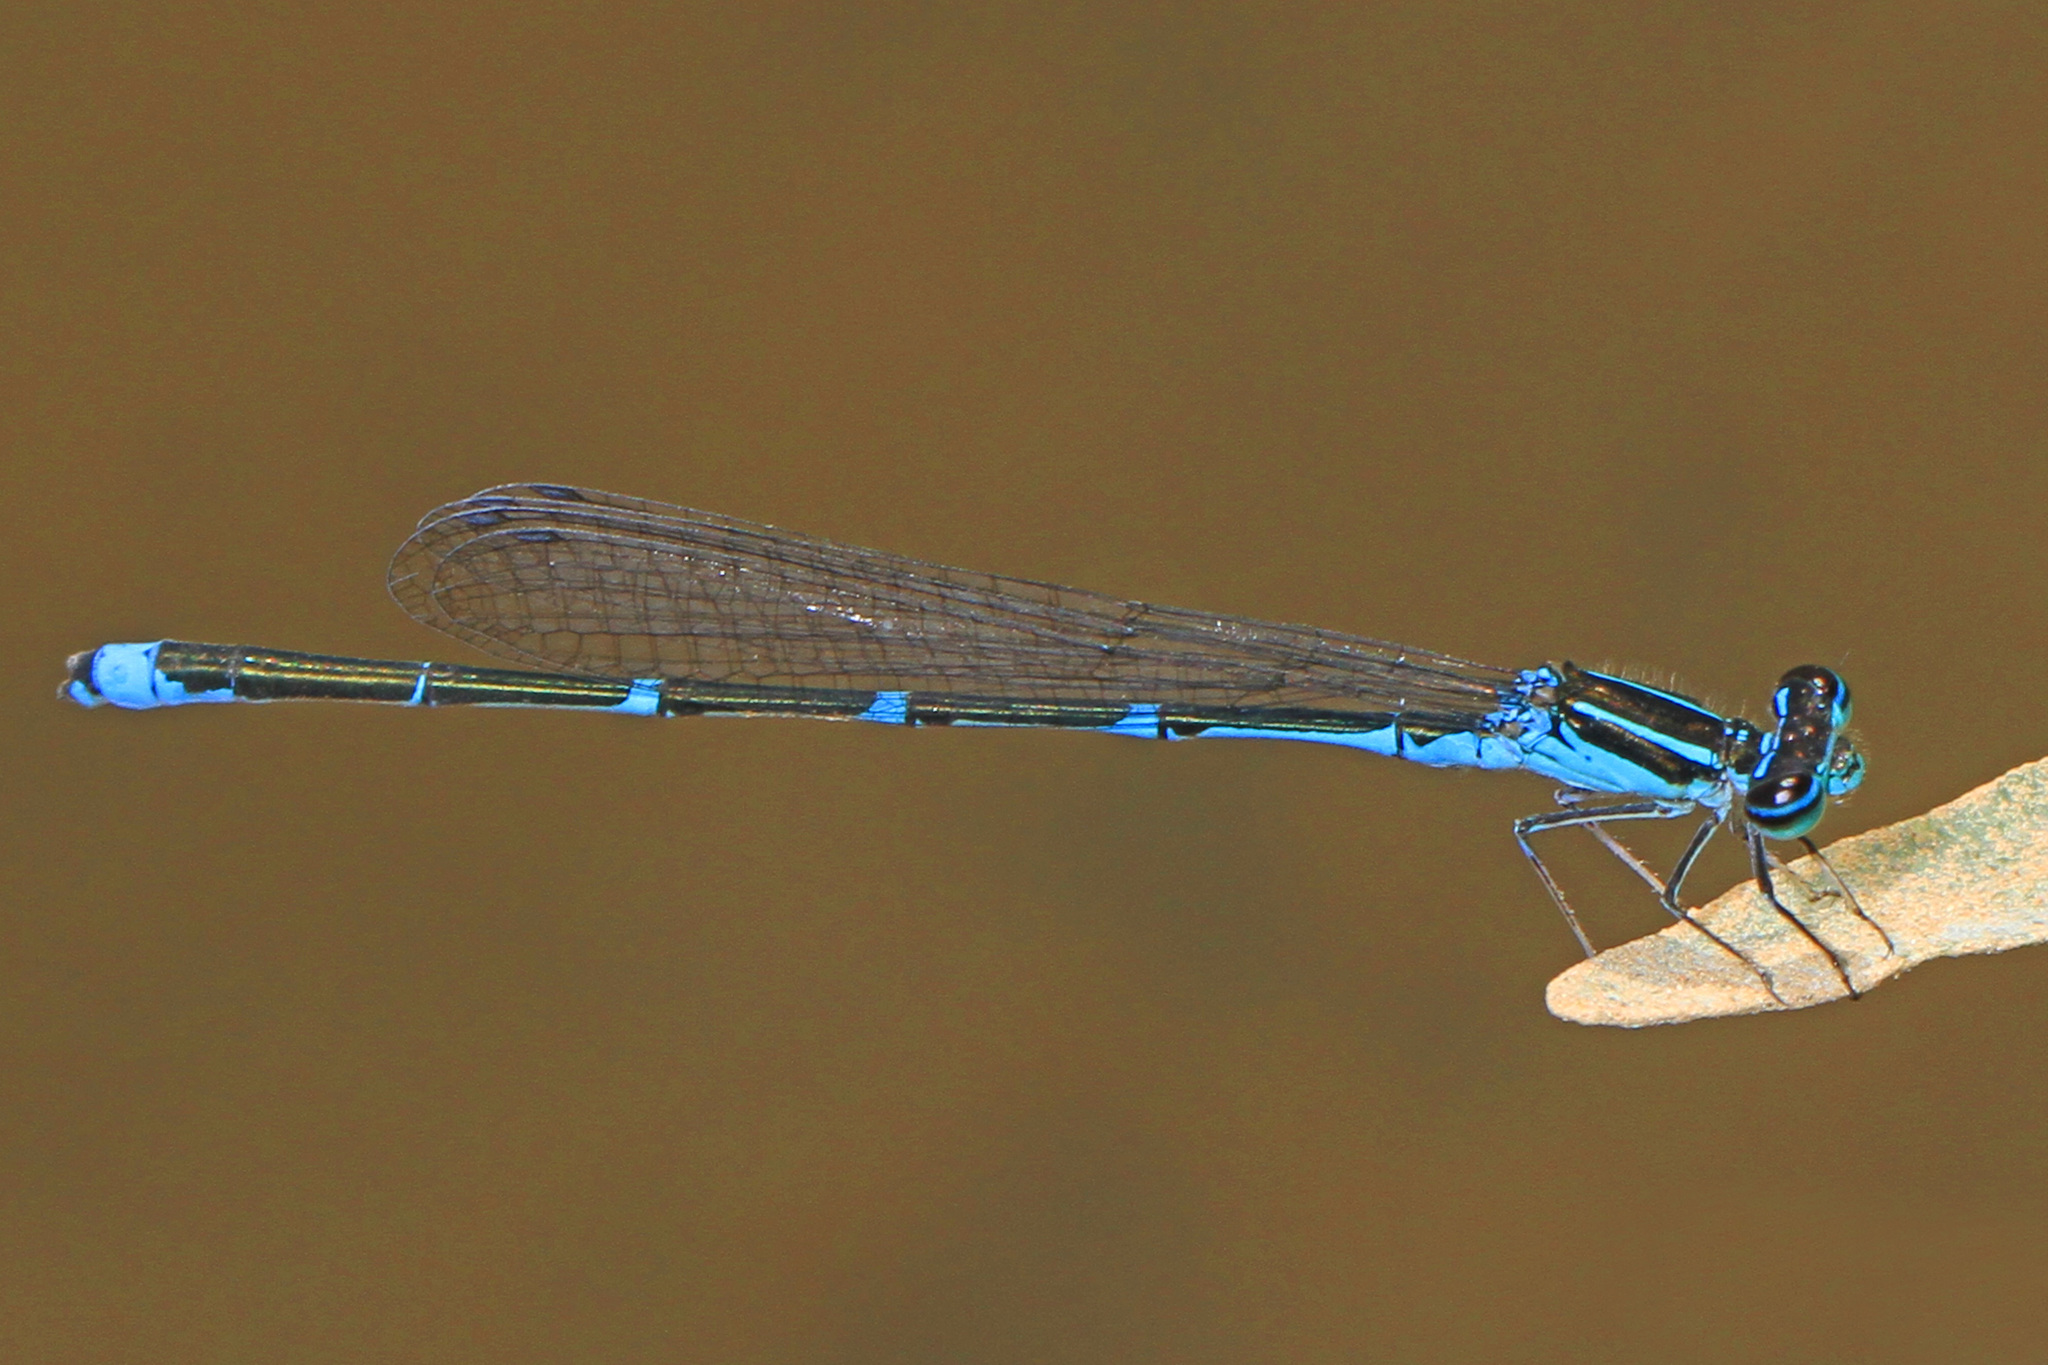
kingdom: Animalia
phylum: Arthropoda
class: Insecta
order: Odonata
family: Coenagrionidae
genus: Enallagma
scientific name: Enallagma exsulans
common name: Stream bluet
